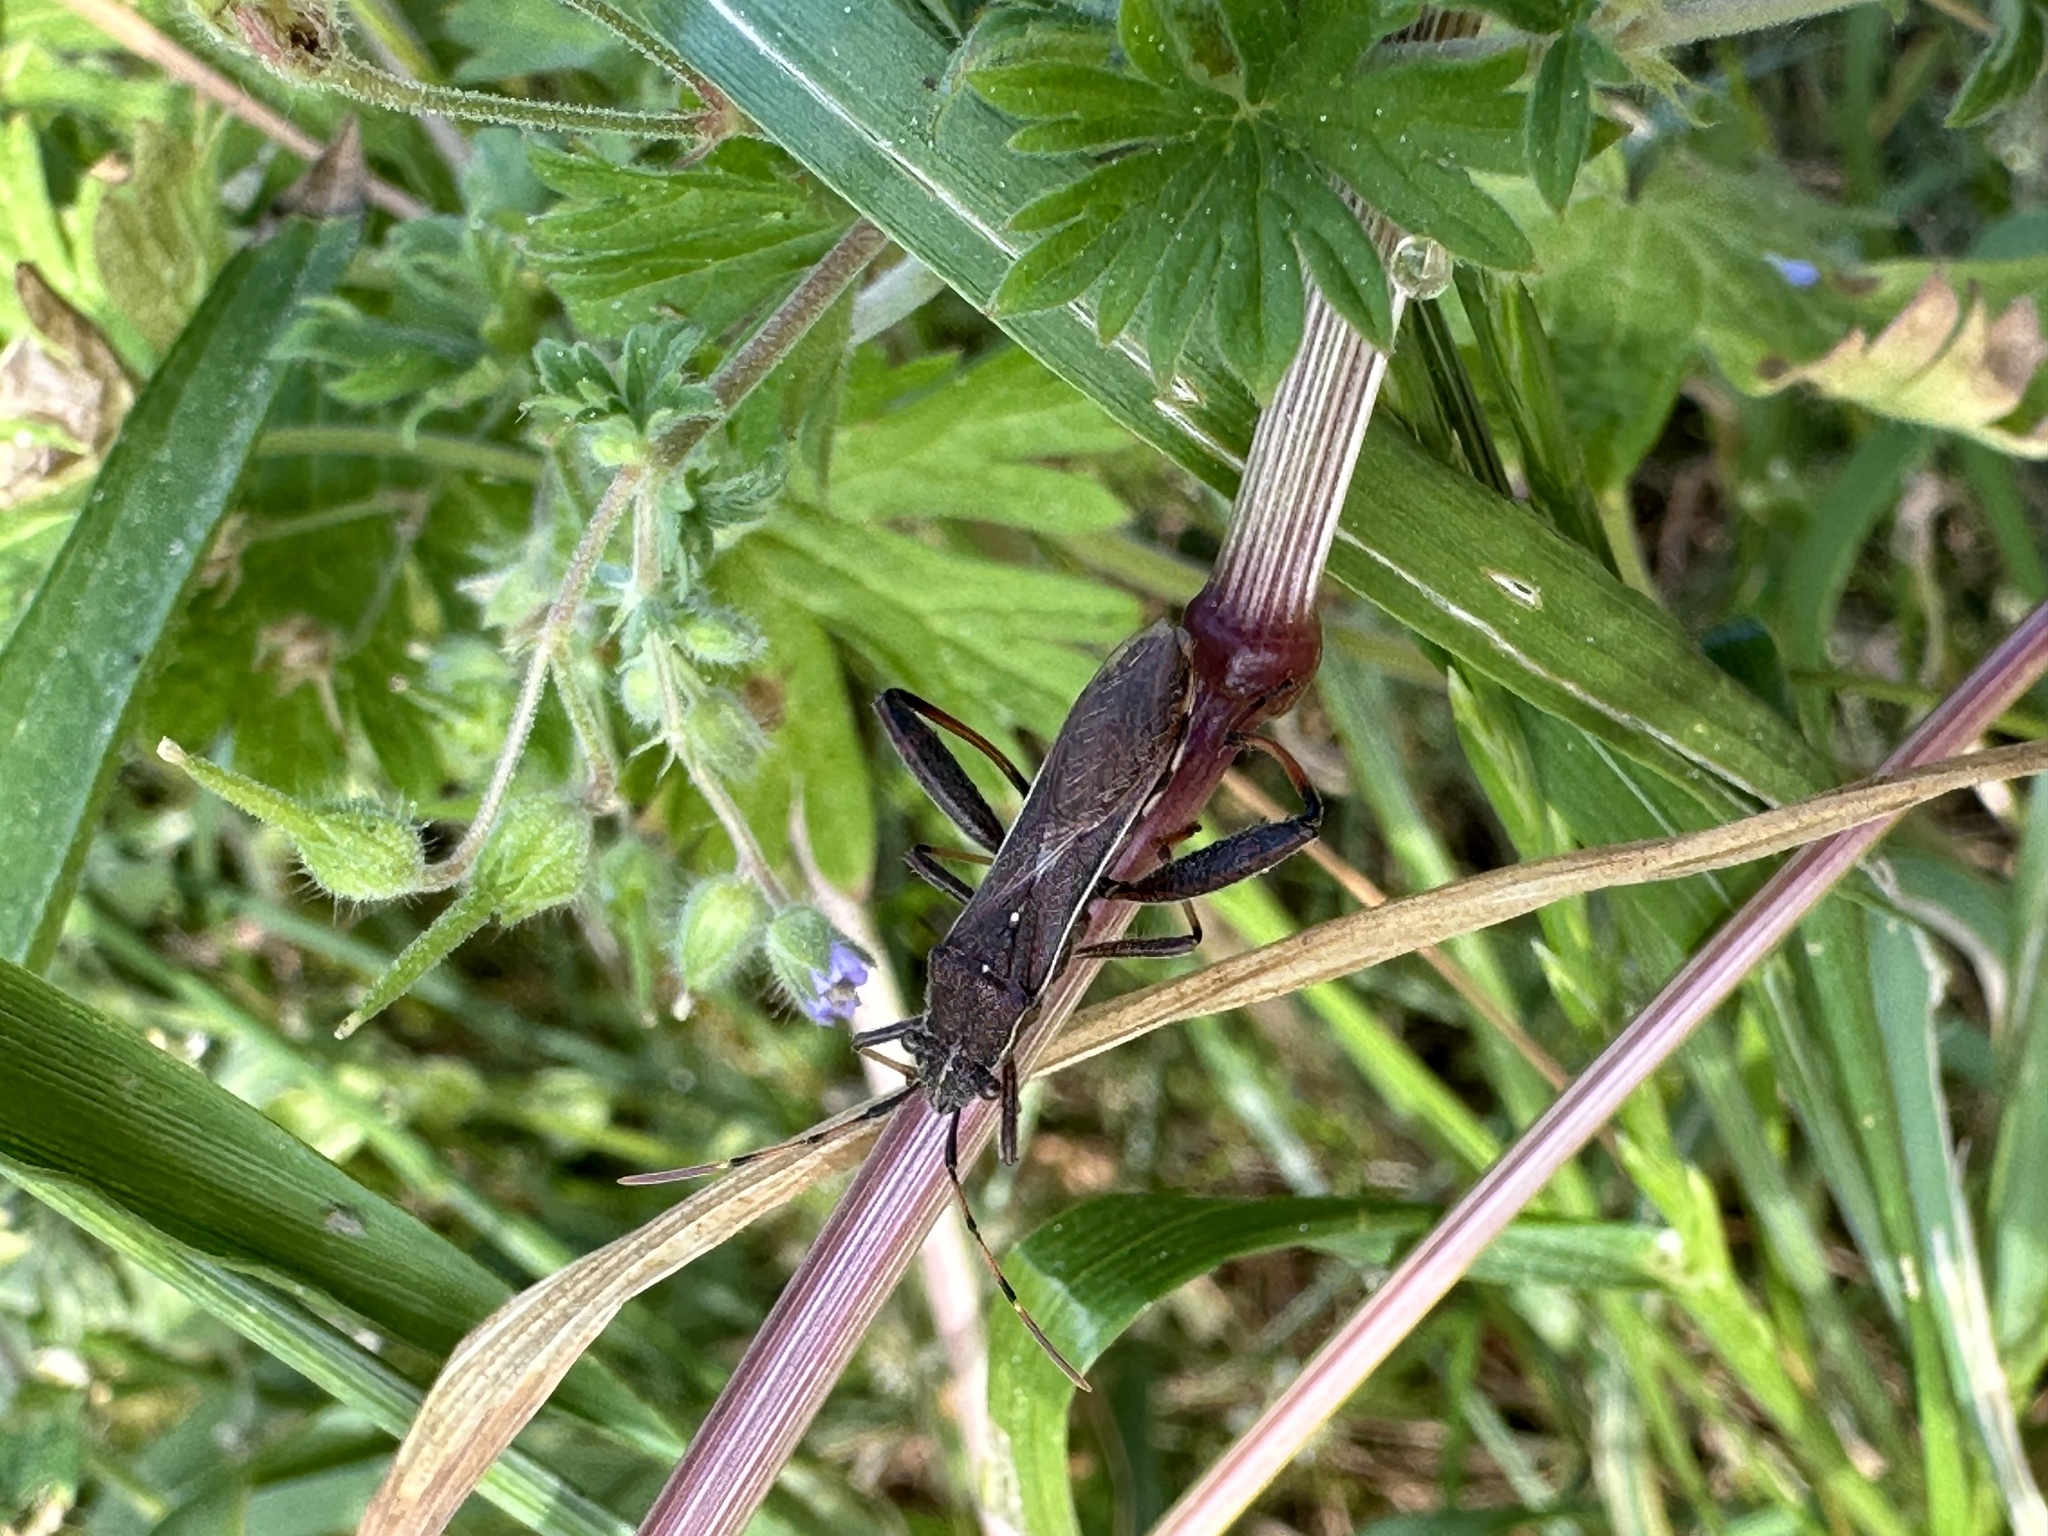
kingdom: Animalia
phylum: Arthropoda
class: Insecta
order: Hemiptera
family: Alydidae
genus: Camptopus
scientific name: Camptopus lateralis
